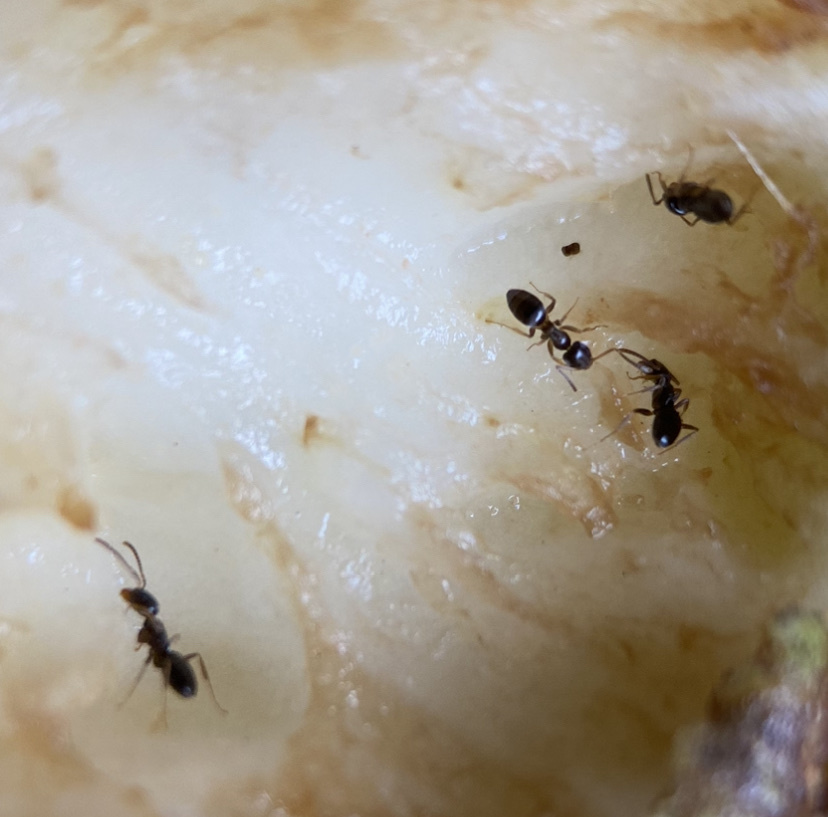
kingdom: Animalia
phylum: Arthropoda
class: Insecta
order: Hymenoptera
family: Formicidae
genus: Tapinoma
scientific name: Tapinoma sessile
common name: Odorous house ant
